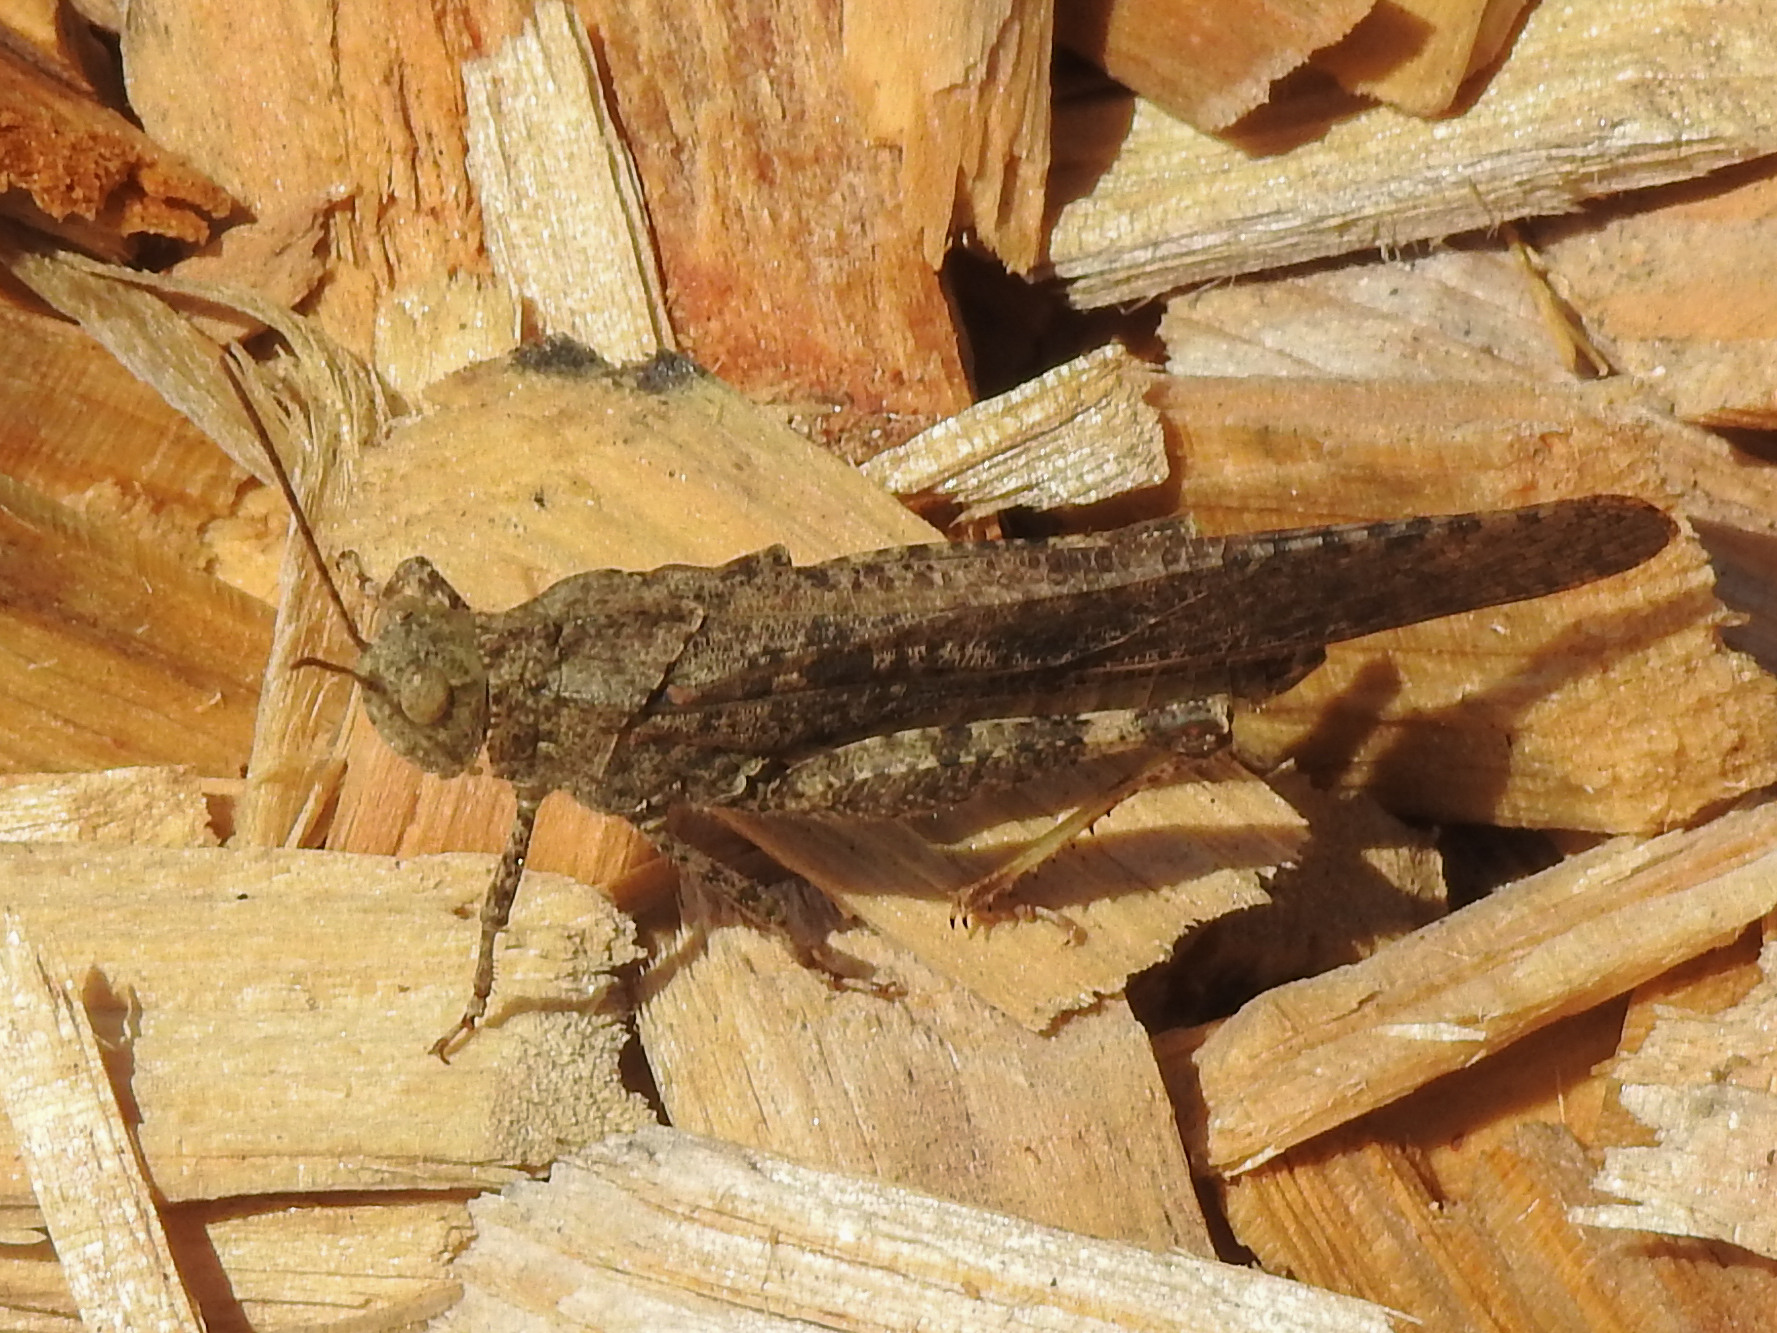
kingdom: Animalia
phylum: Arthropoda
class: Insecta
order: Orthoptera
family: Acrididae
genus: Dissosteira
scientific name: Dissosteira carolina
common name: Carolina grasshopper
